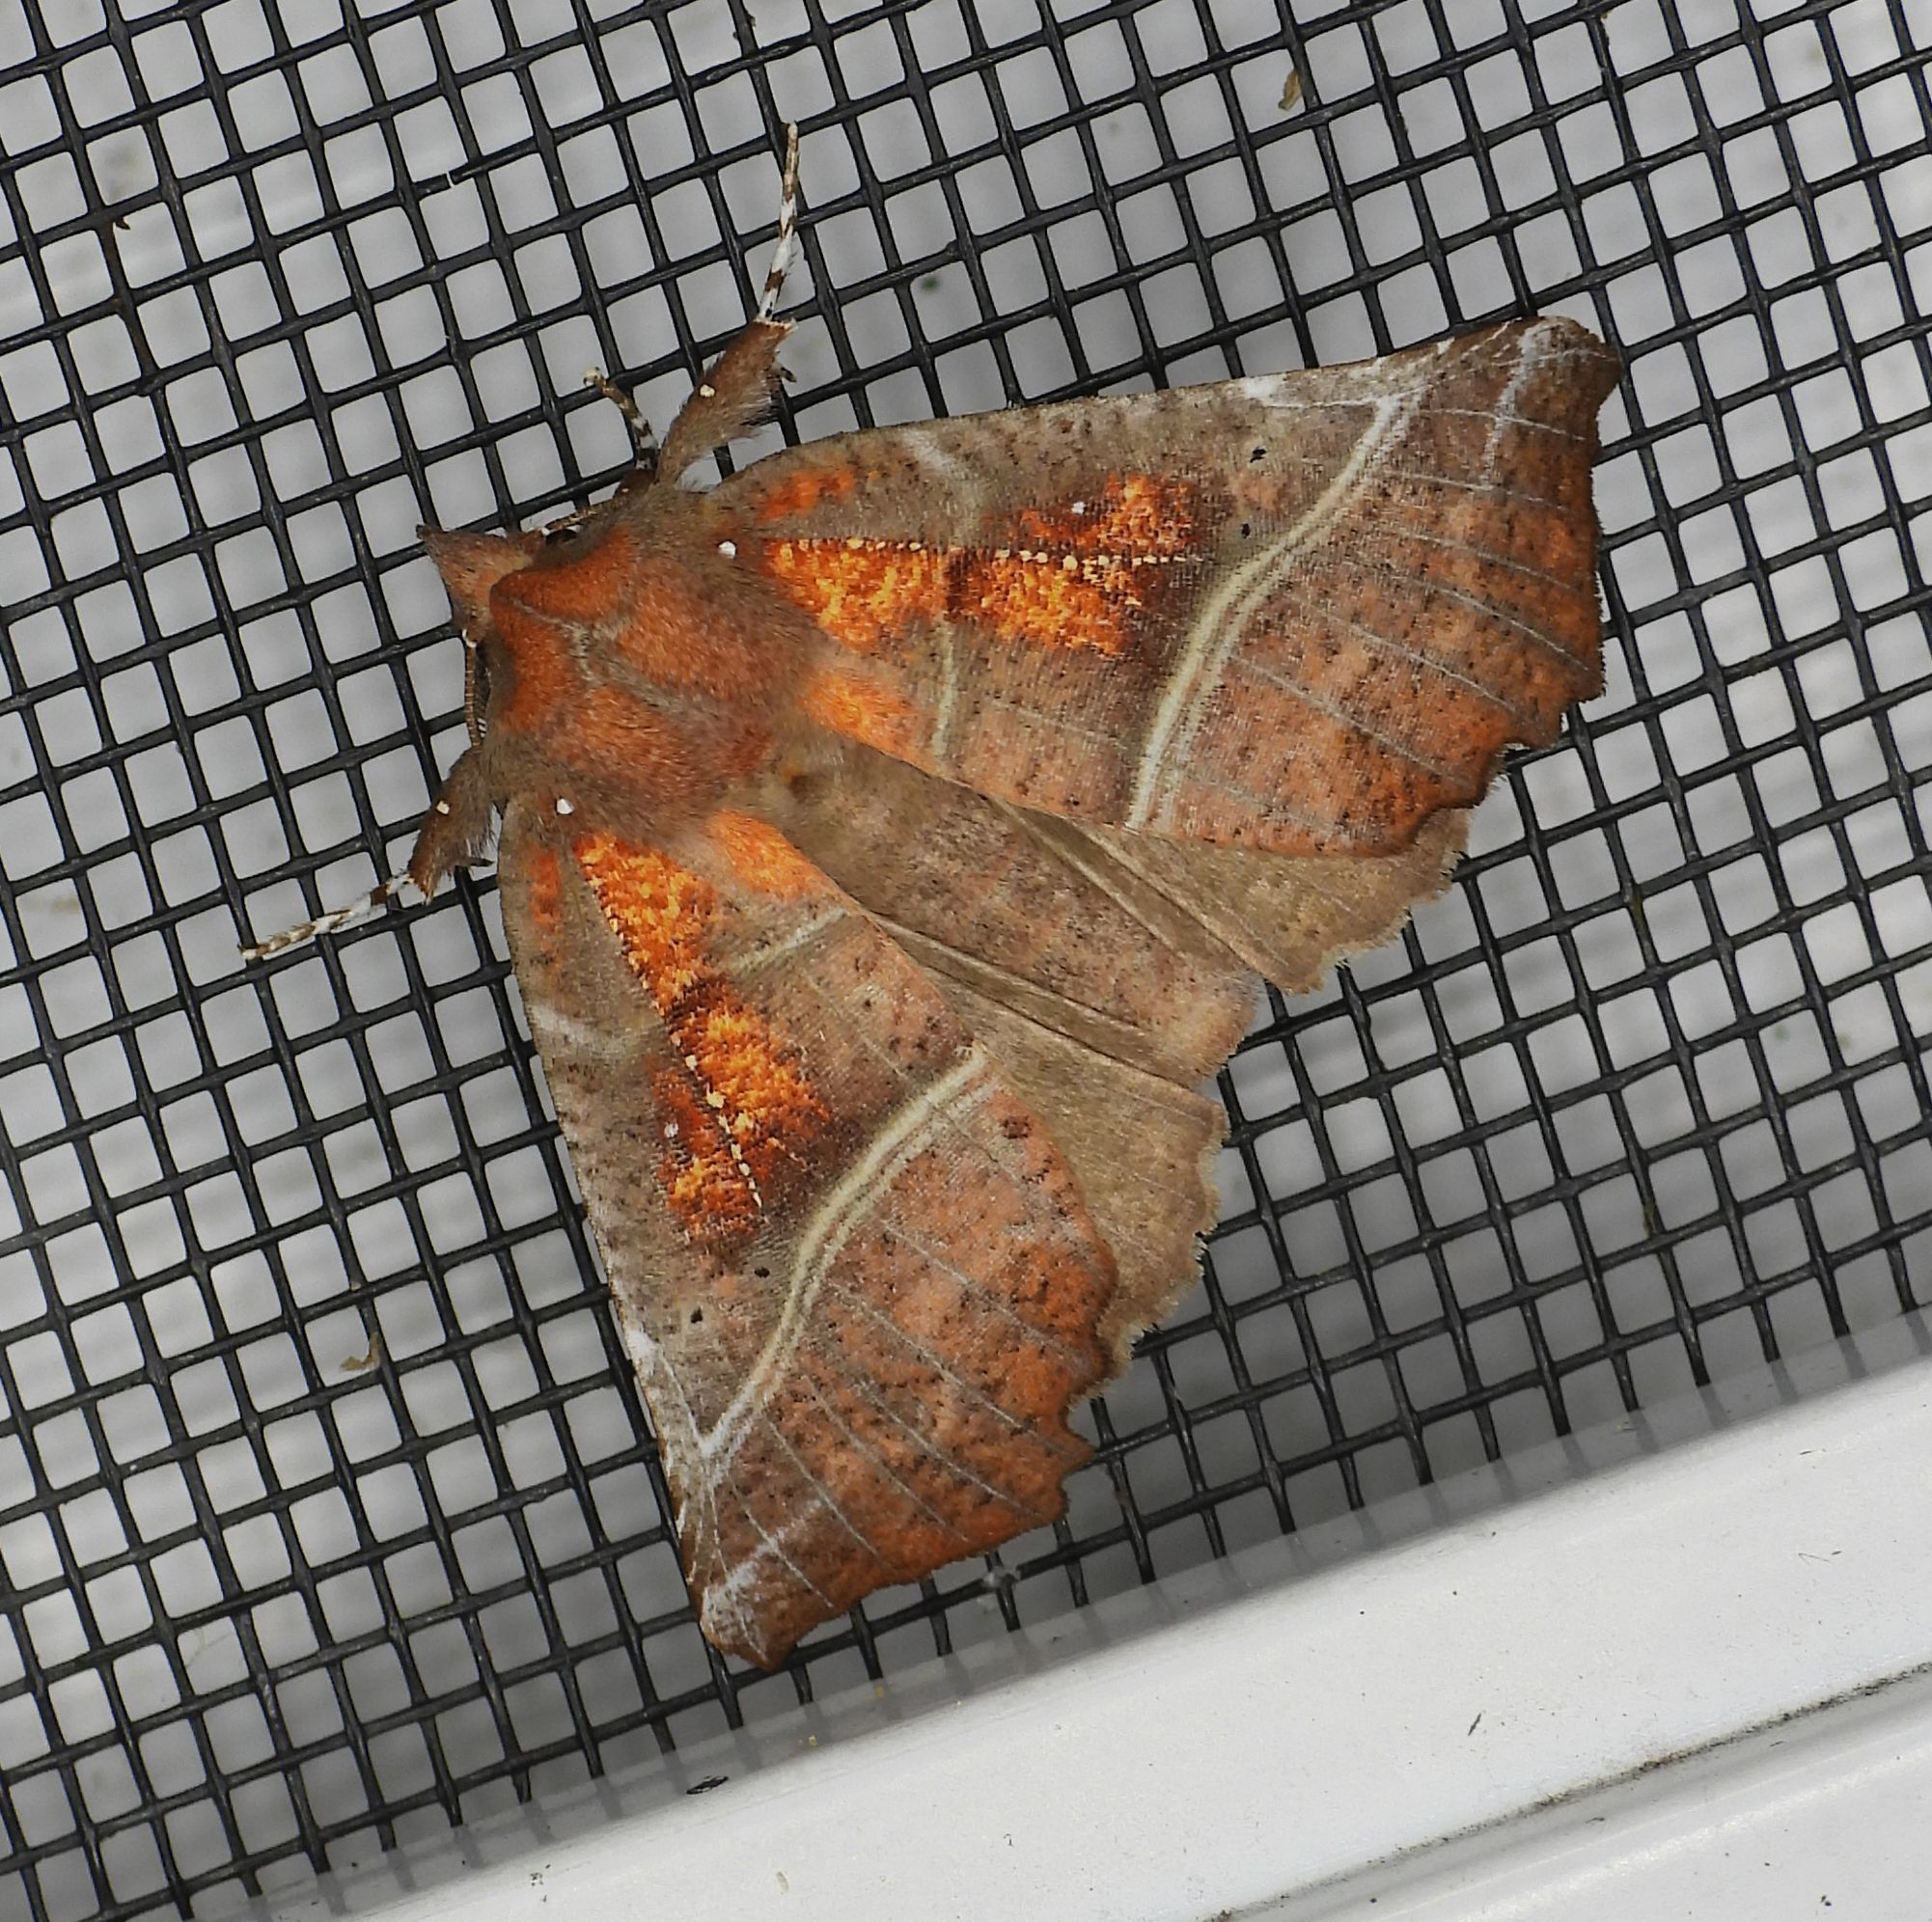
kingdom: Animalia
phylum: Arthropoda
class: Insecta
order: Lepidoptera
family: Erebidae
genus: Scoliopteryx
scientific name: Scoliopteryx libatrix
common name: Herald
